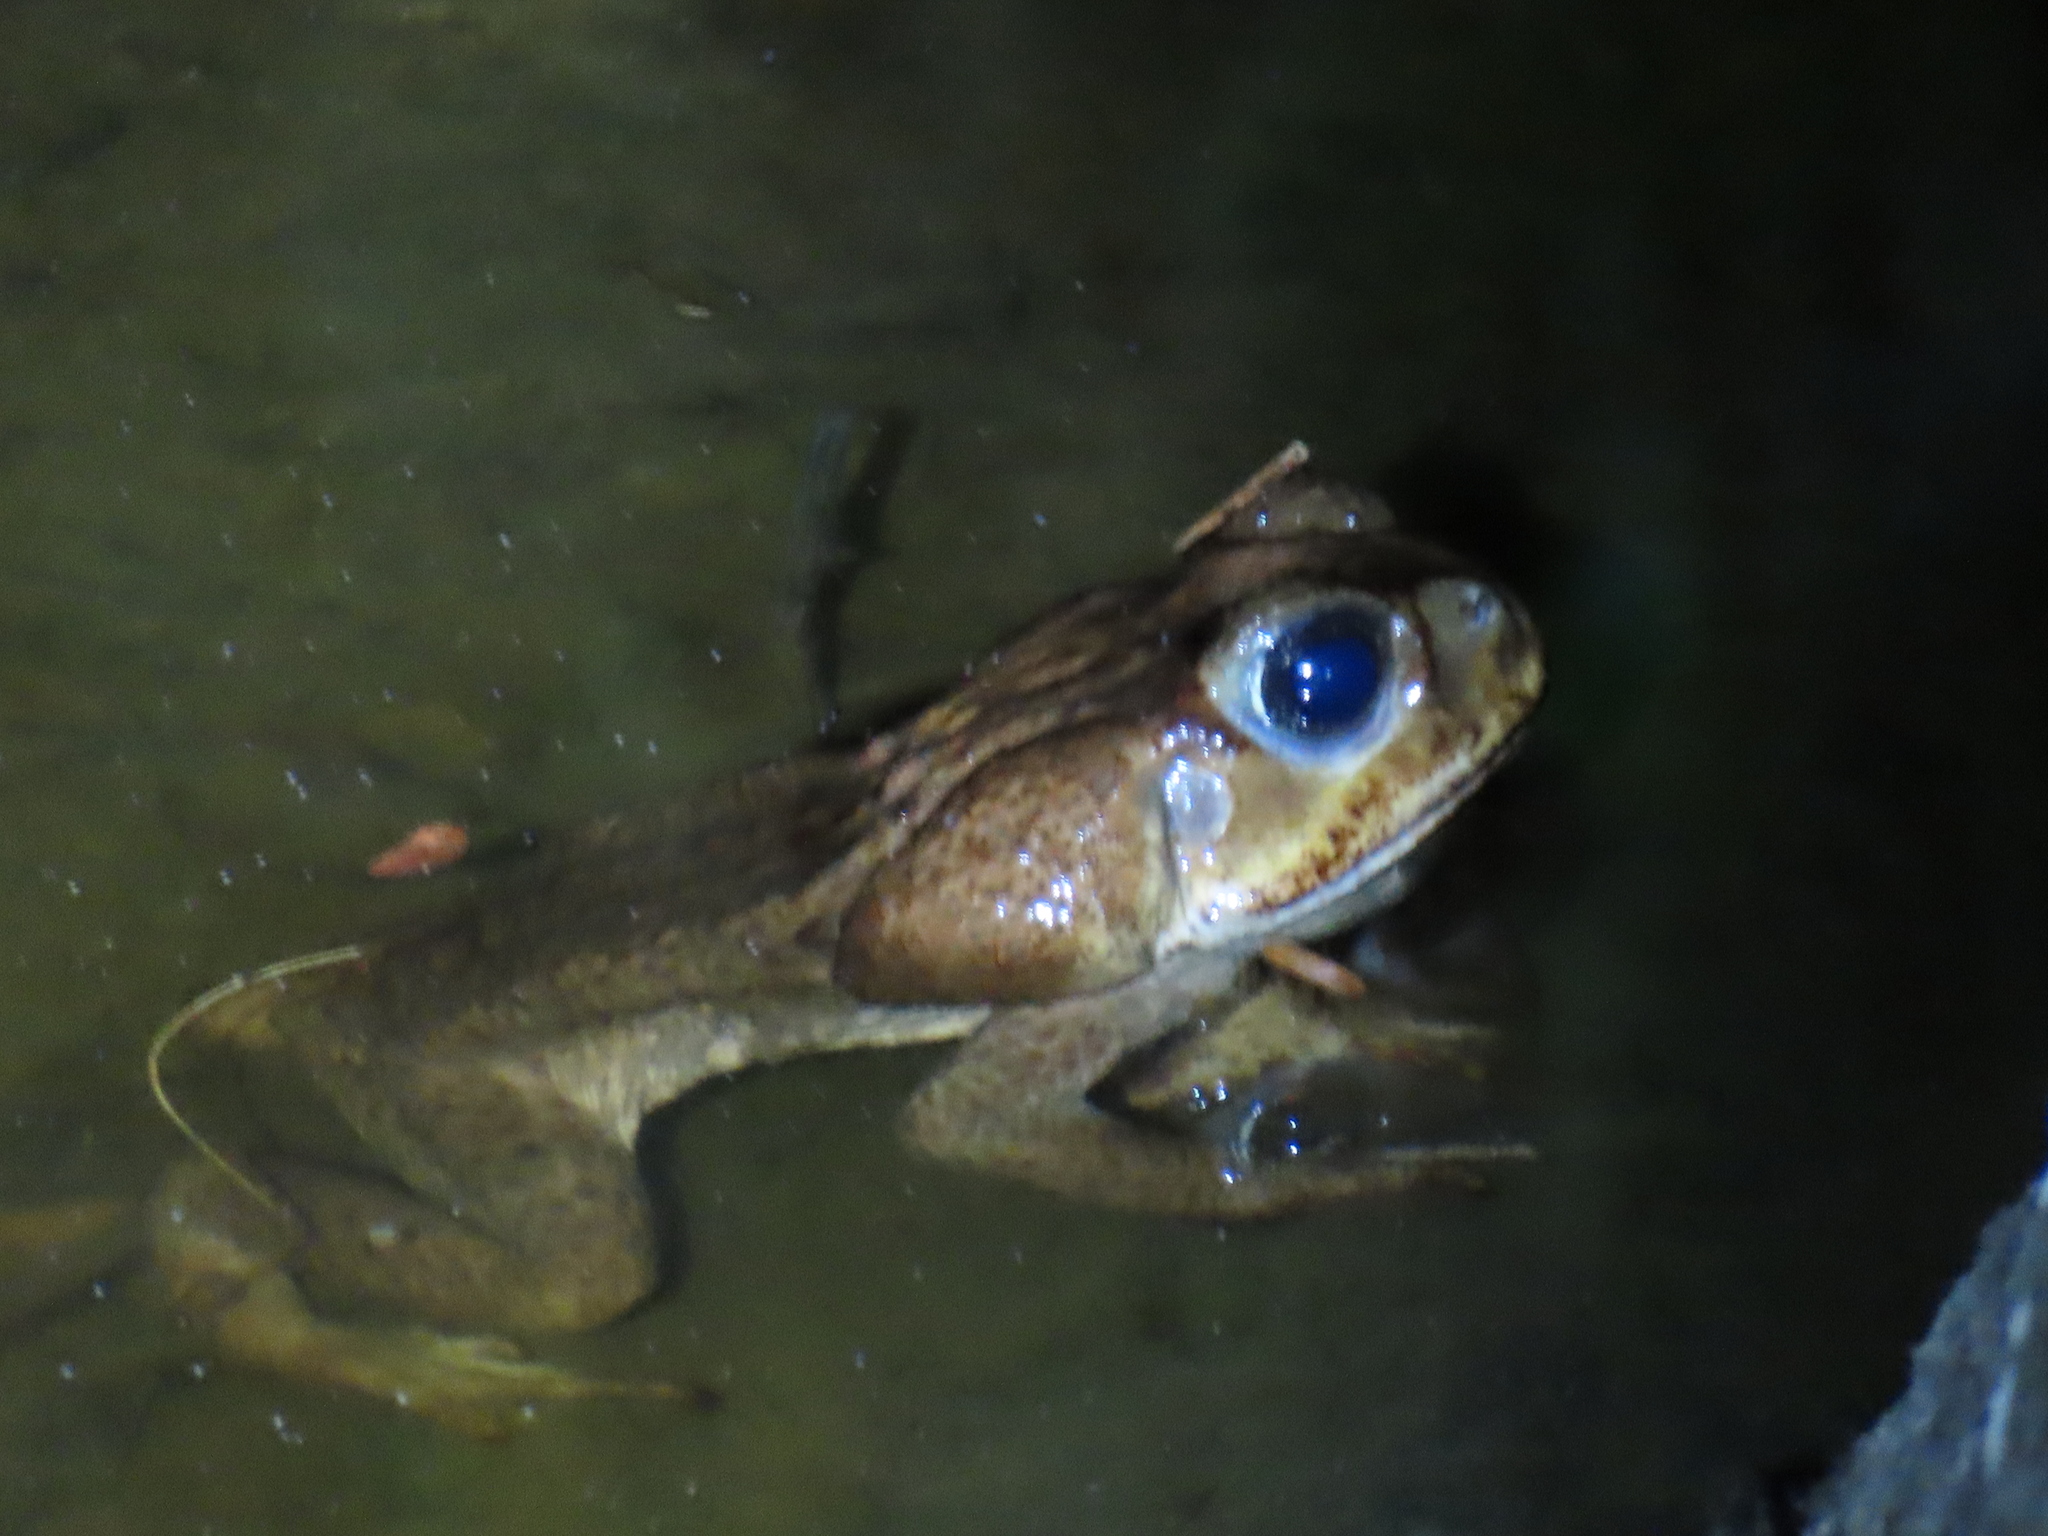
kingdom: Animalia
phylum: Chordata
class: Amphibia
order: Anura
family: Bufonidae
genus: Rhinella
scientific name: Rhinella horribilis
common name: Mesoamerican cane toad
